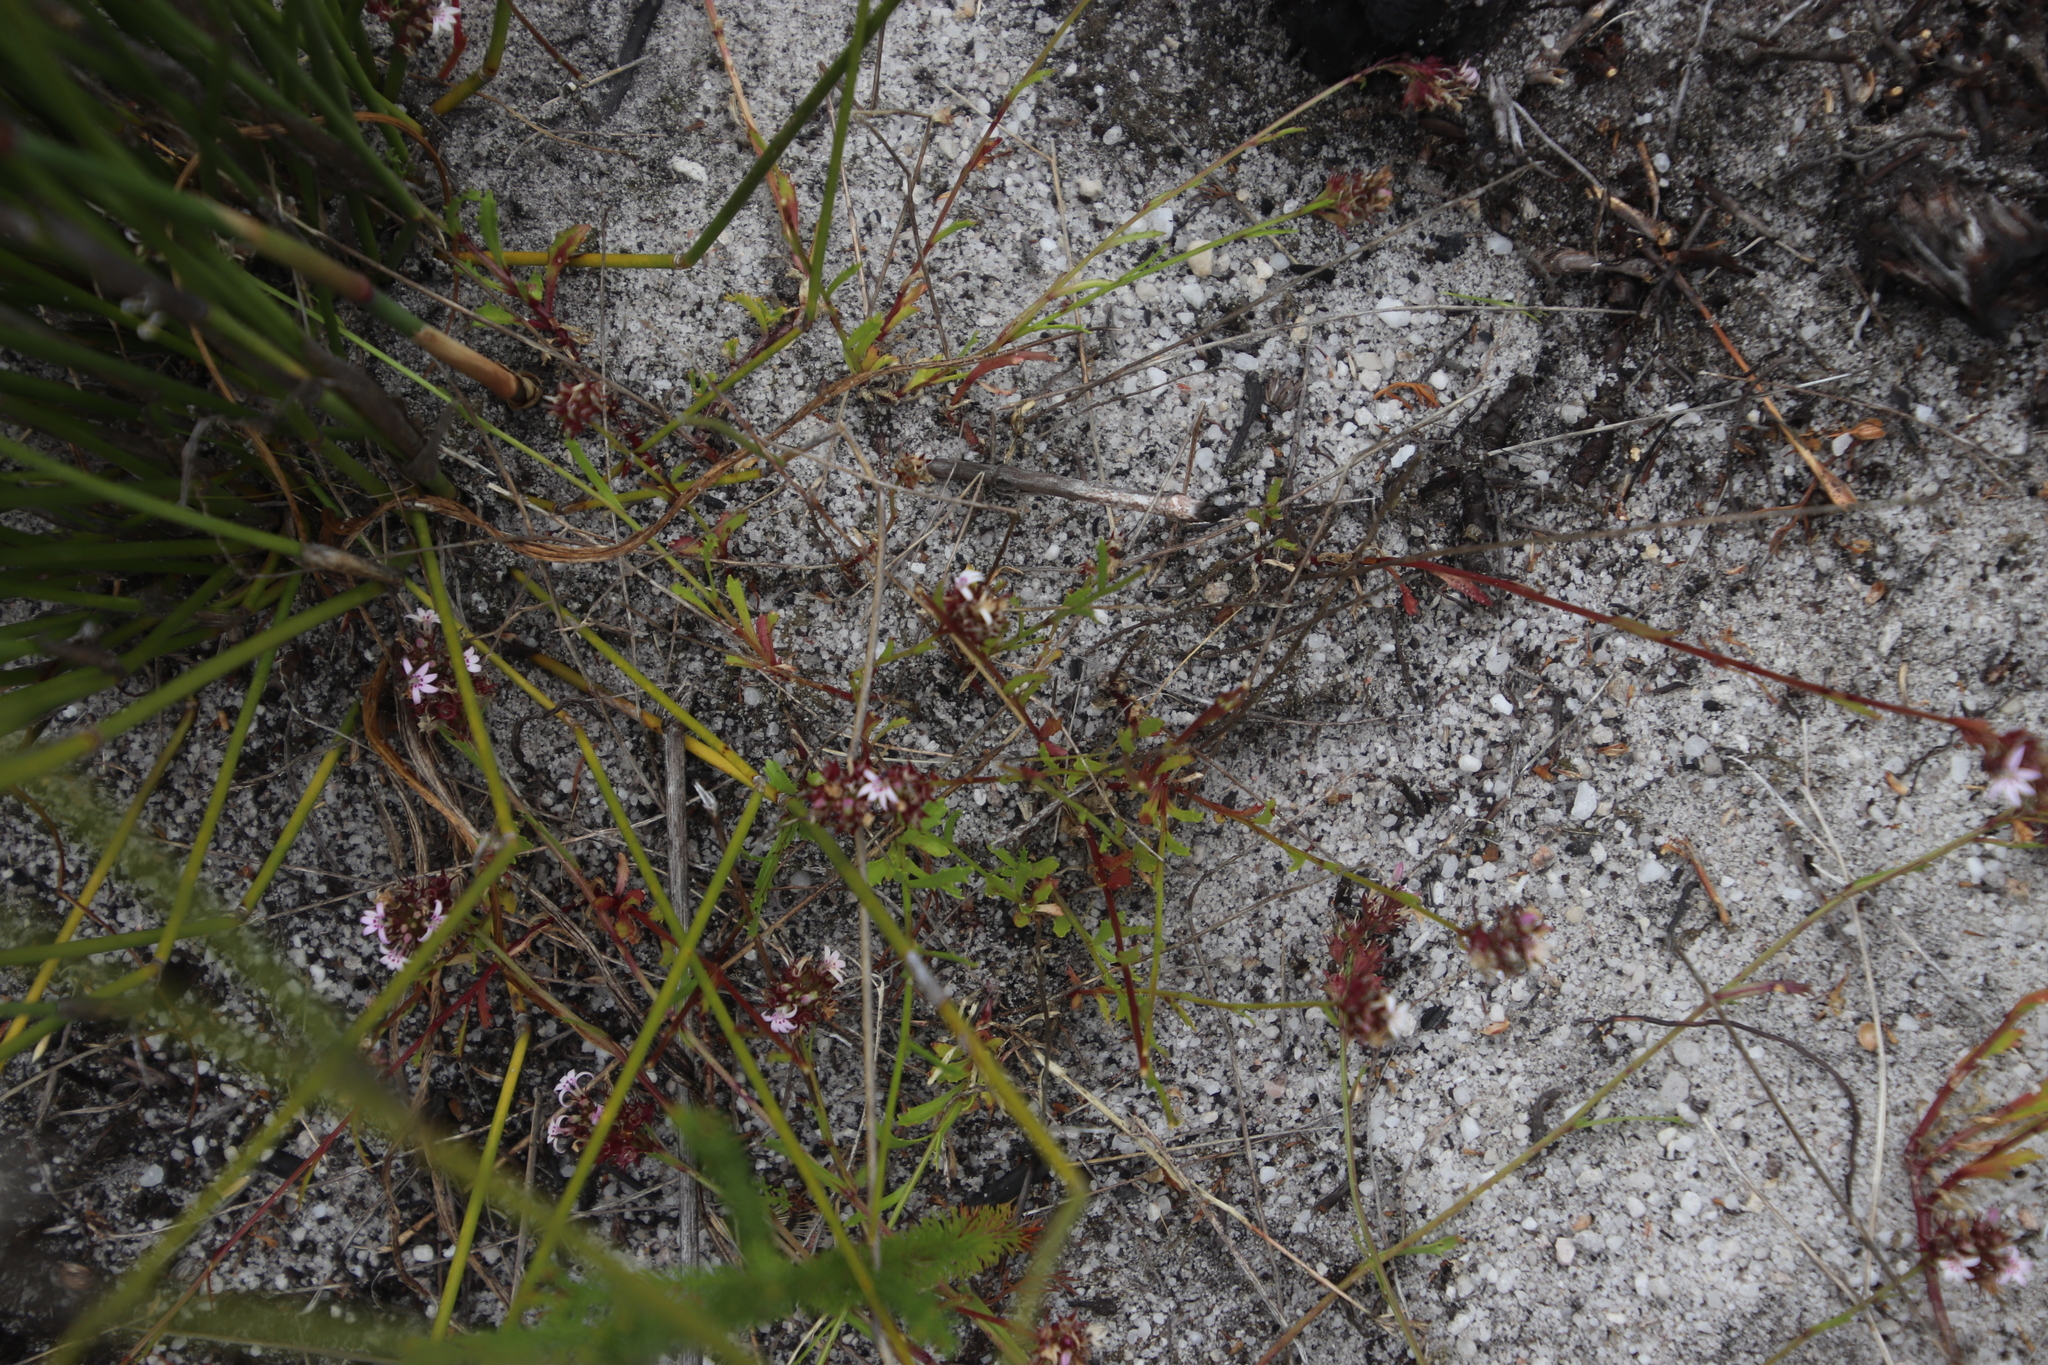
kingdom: Plantae
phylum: Tracheophyta
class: Magnoliopsida
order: Asterales
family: Campanulaceae
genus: Lobelia
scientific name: Lobelia jasionoides
